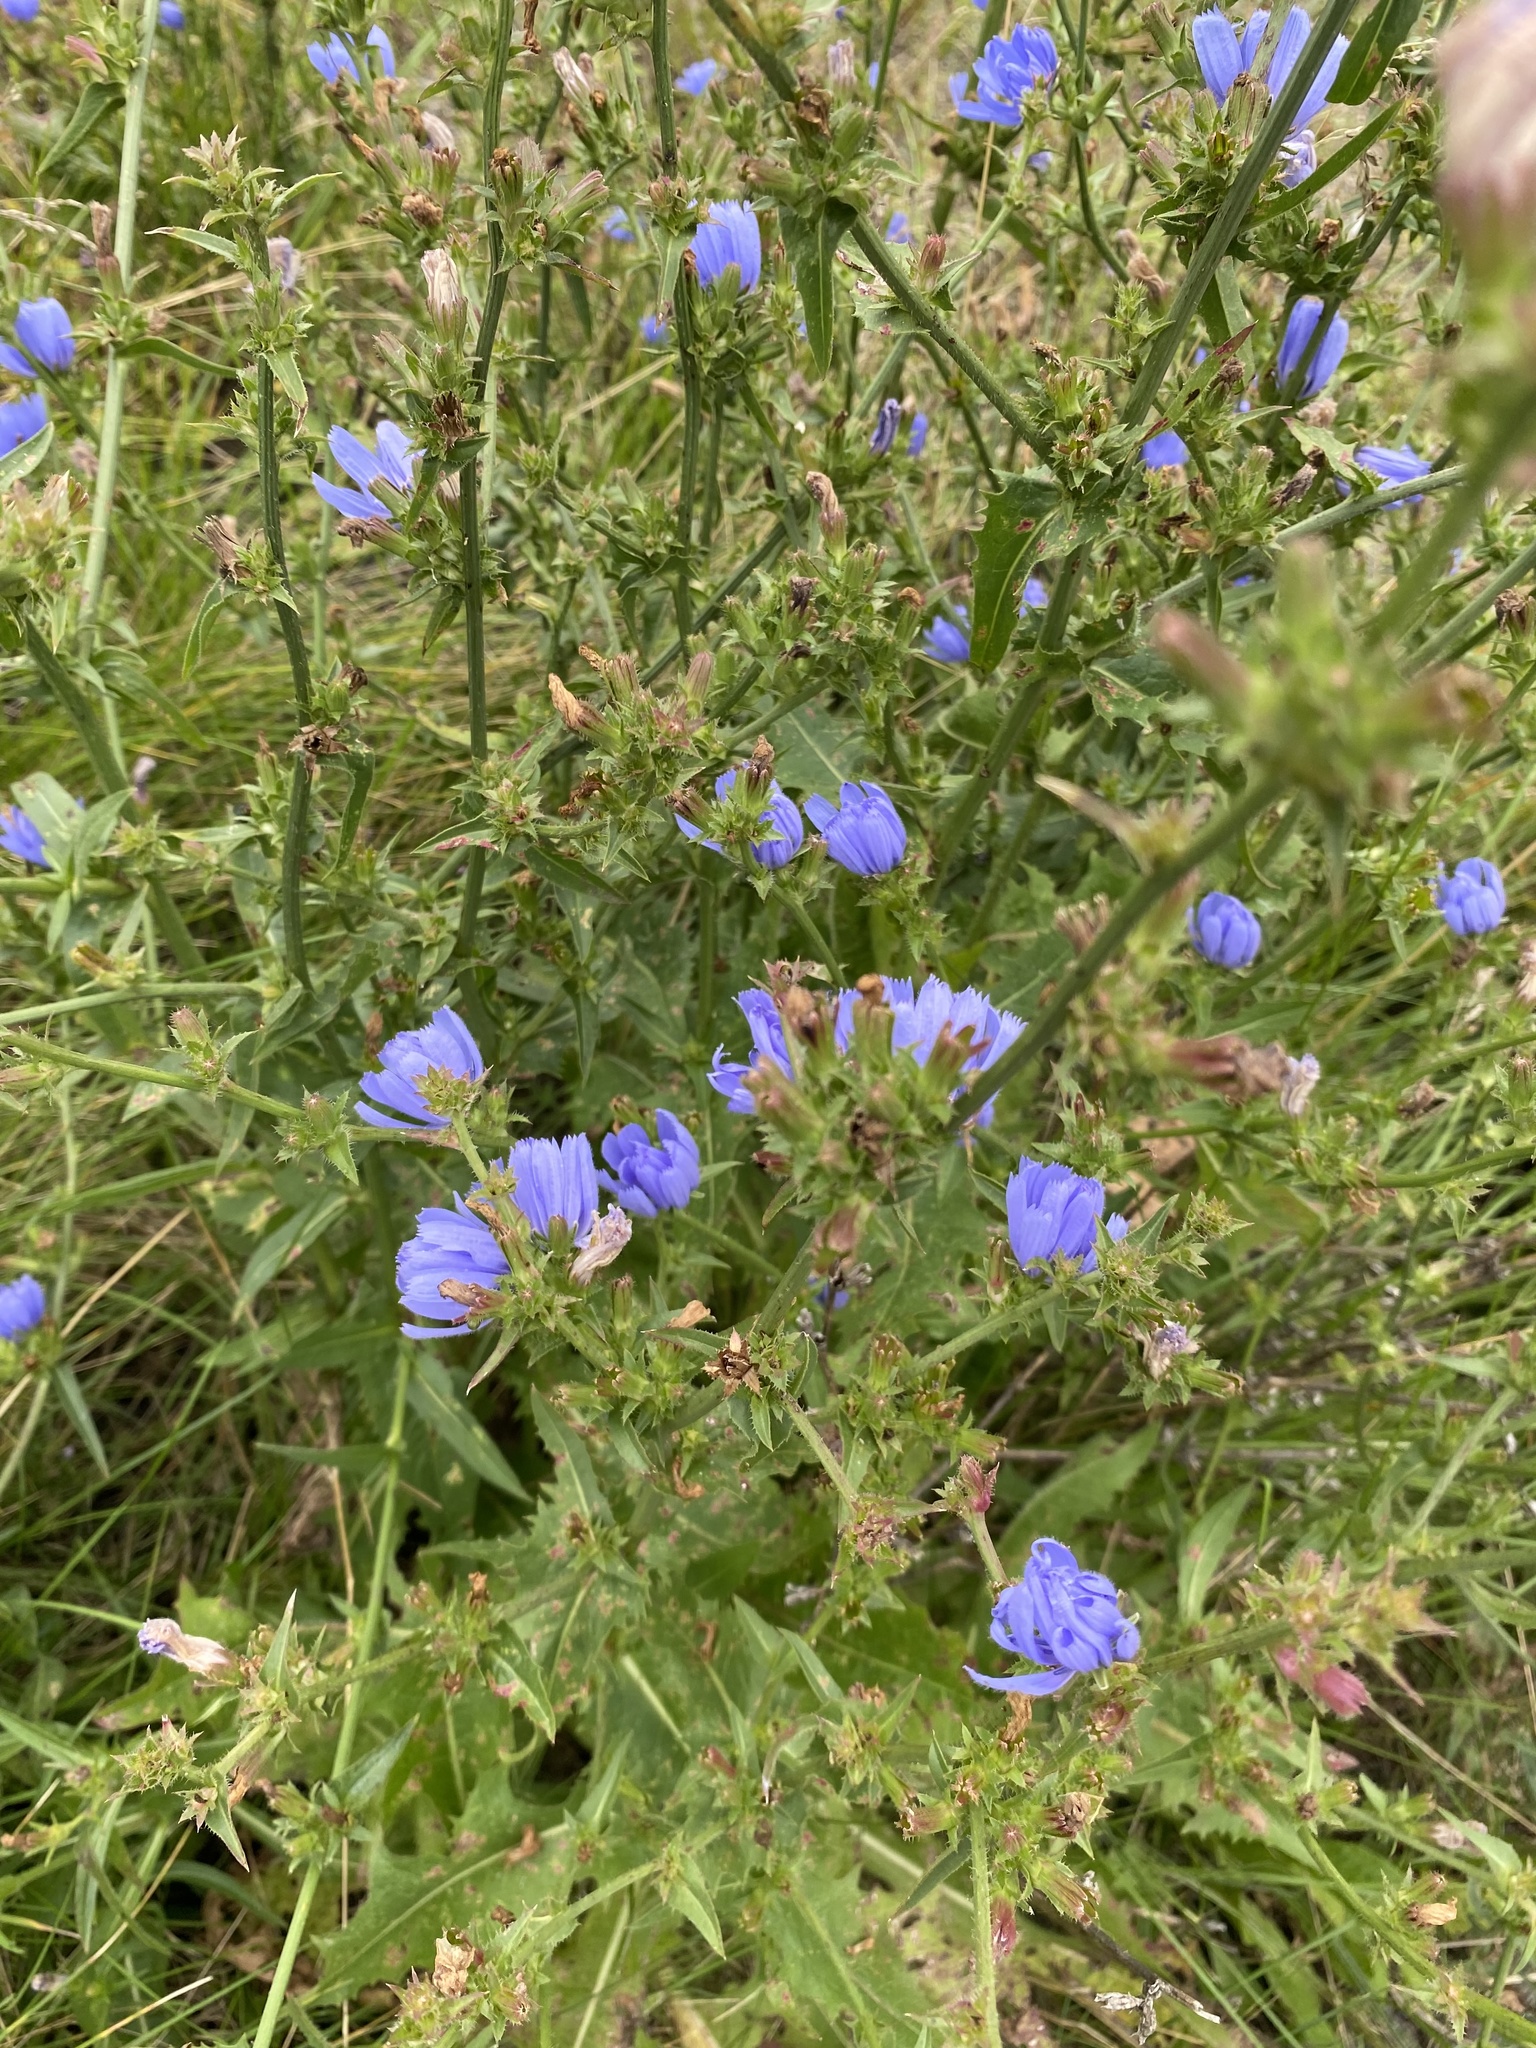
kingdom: Plantae
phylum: Tracheophyta
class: Magnoliopsida
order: Asterales
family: Asteraceae
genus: Cichorium
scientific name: Cichorium intybus
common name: Chicory
